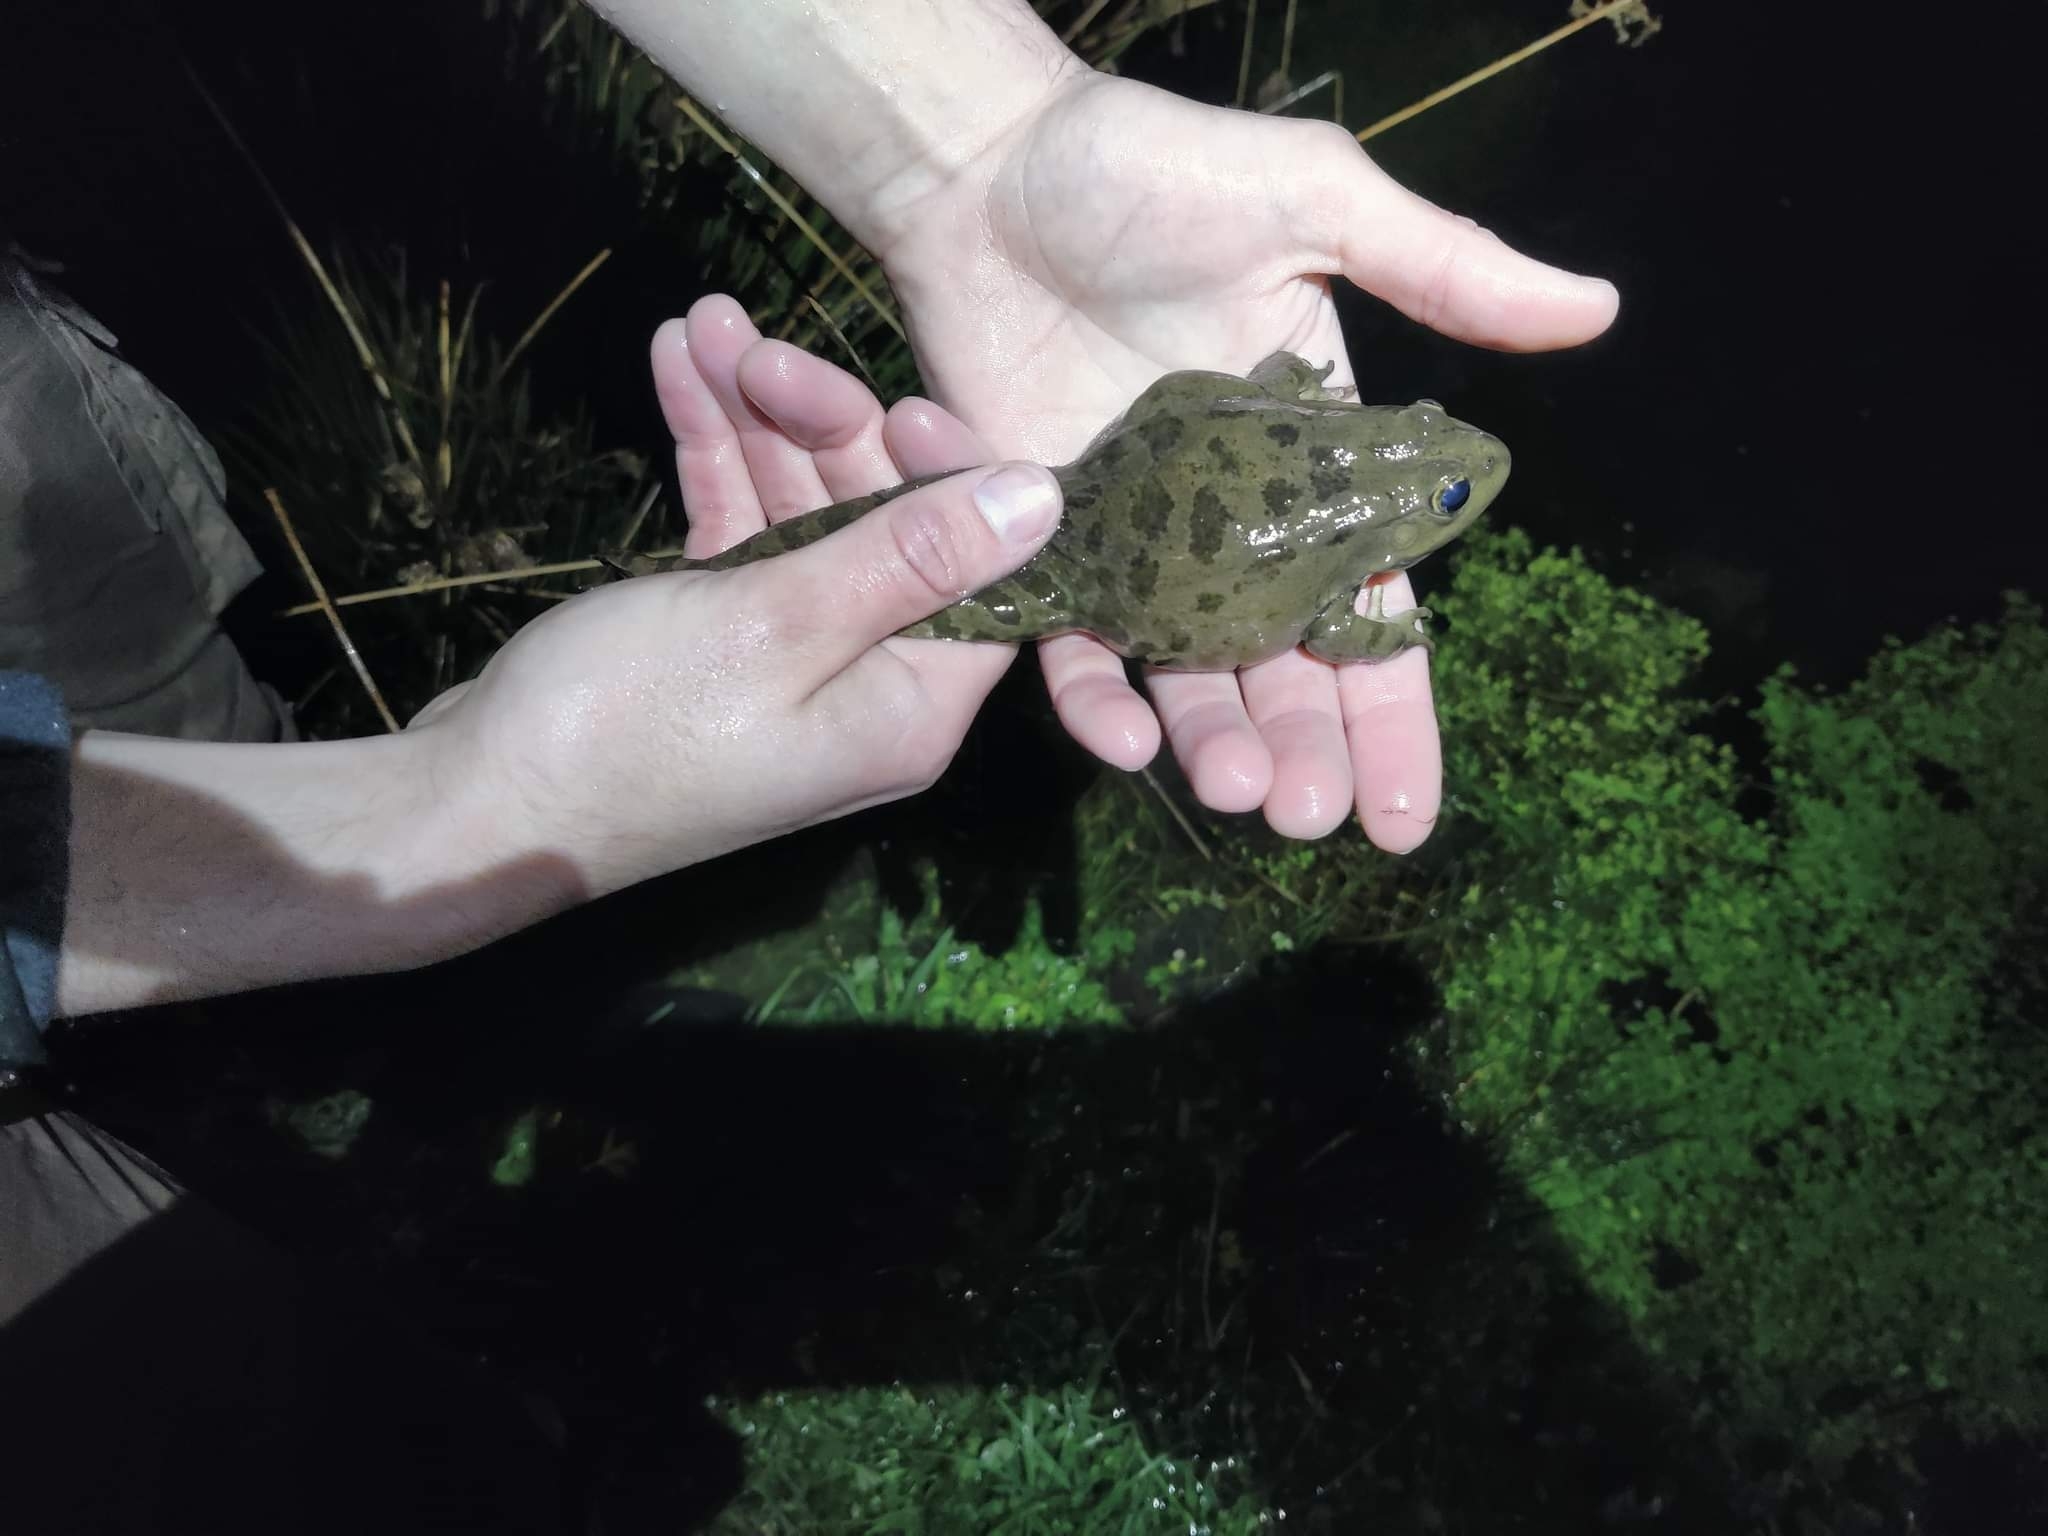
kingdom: Animalia
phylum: Chordata
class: Amphibia
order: Anura
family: Ranidae
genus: Pelophylax
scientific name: Pelophylax ridibundus
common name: Marsh frog
